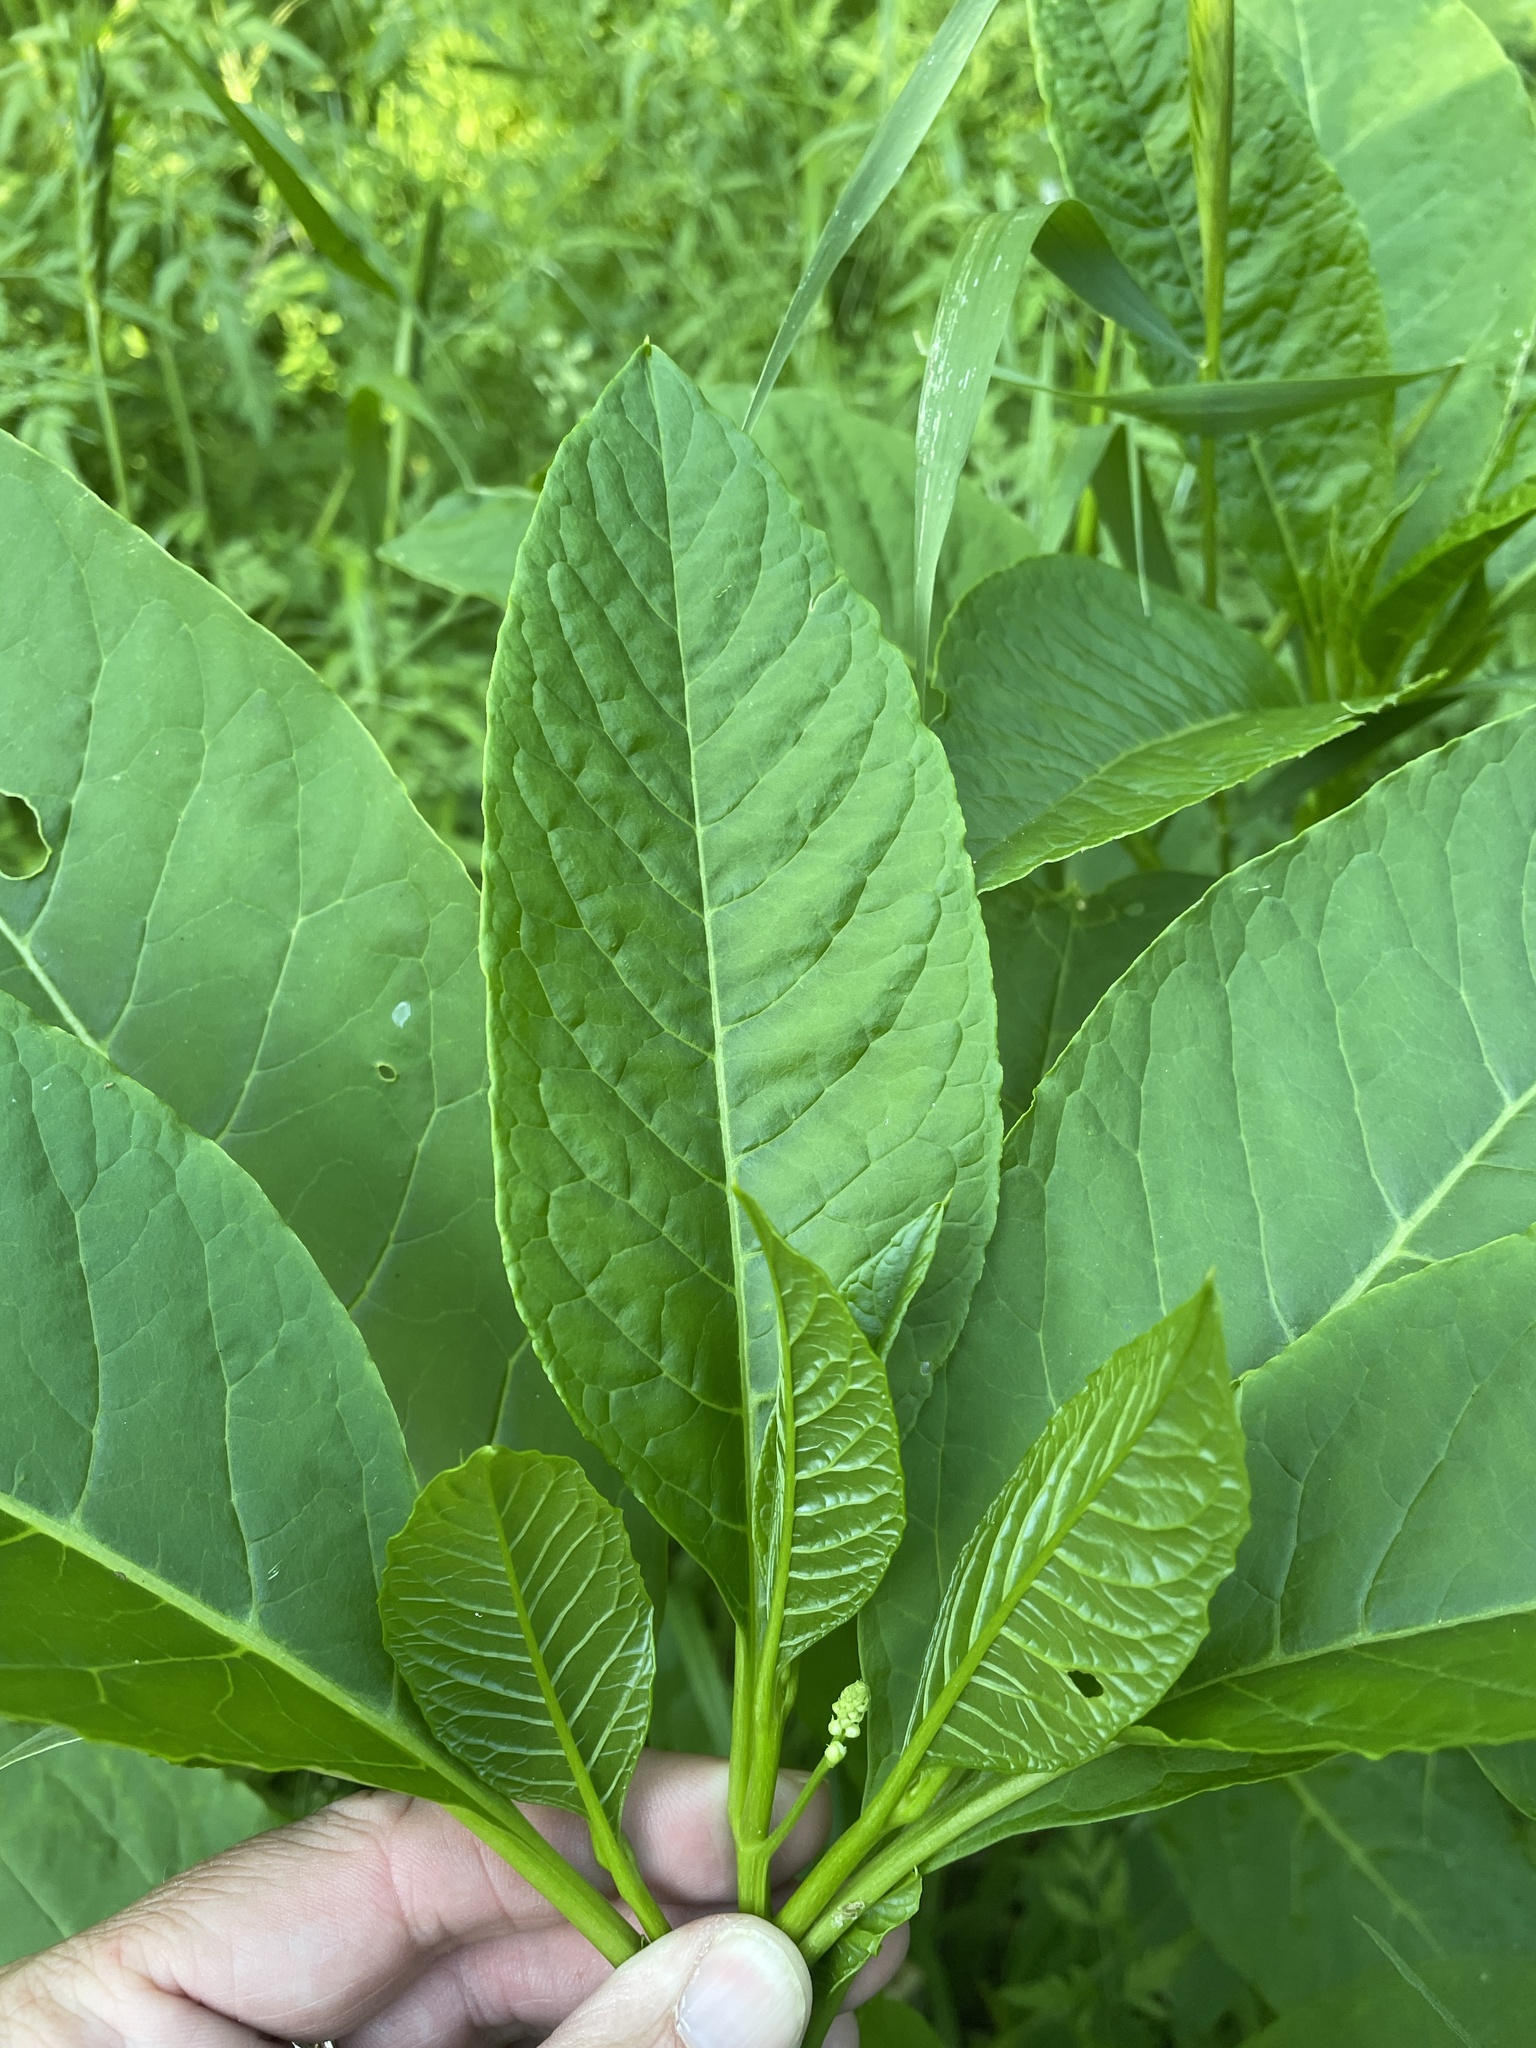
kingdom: Plantae
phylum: Tracheophyta
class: Magnoliopsida
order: Caryophyllales
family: Phytolaccaceae
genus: Phytolacca
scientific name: Phytolacca americana
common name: American pokeweed
